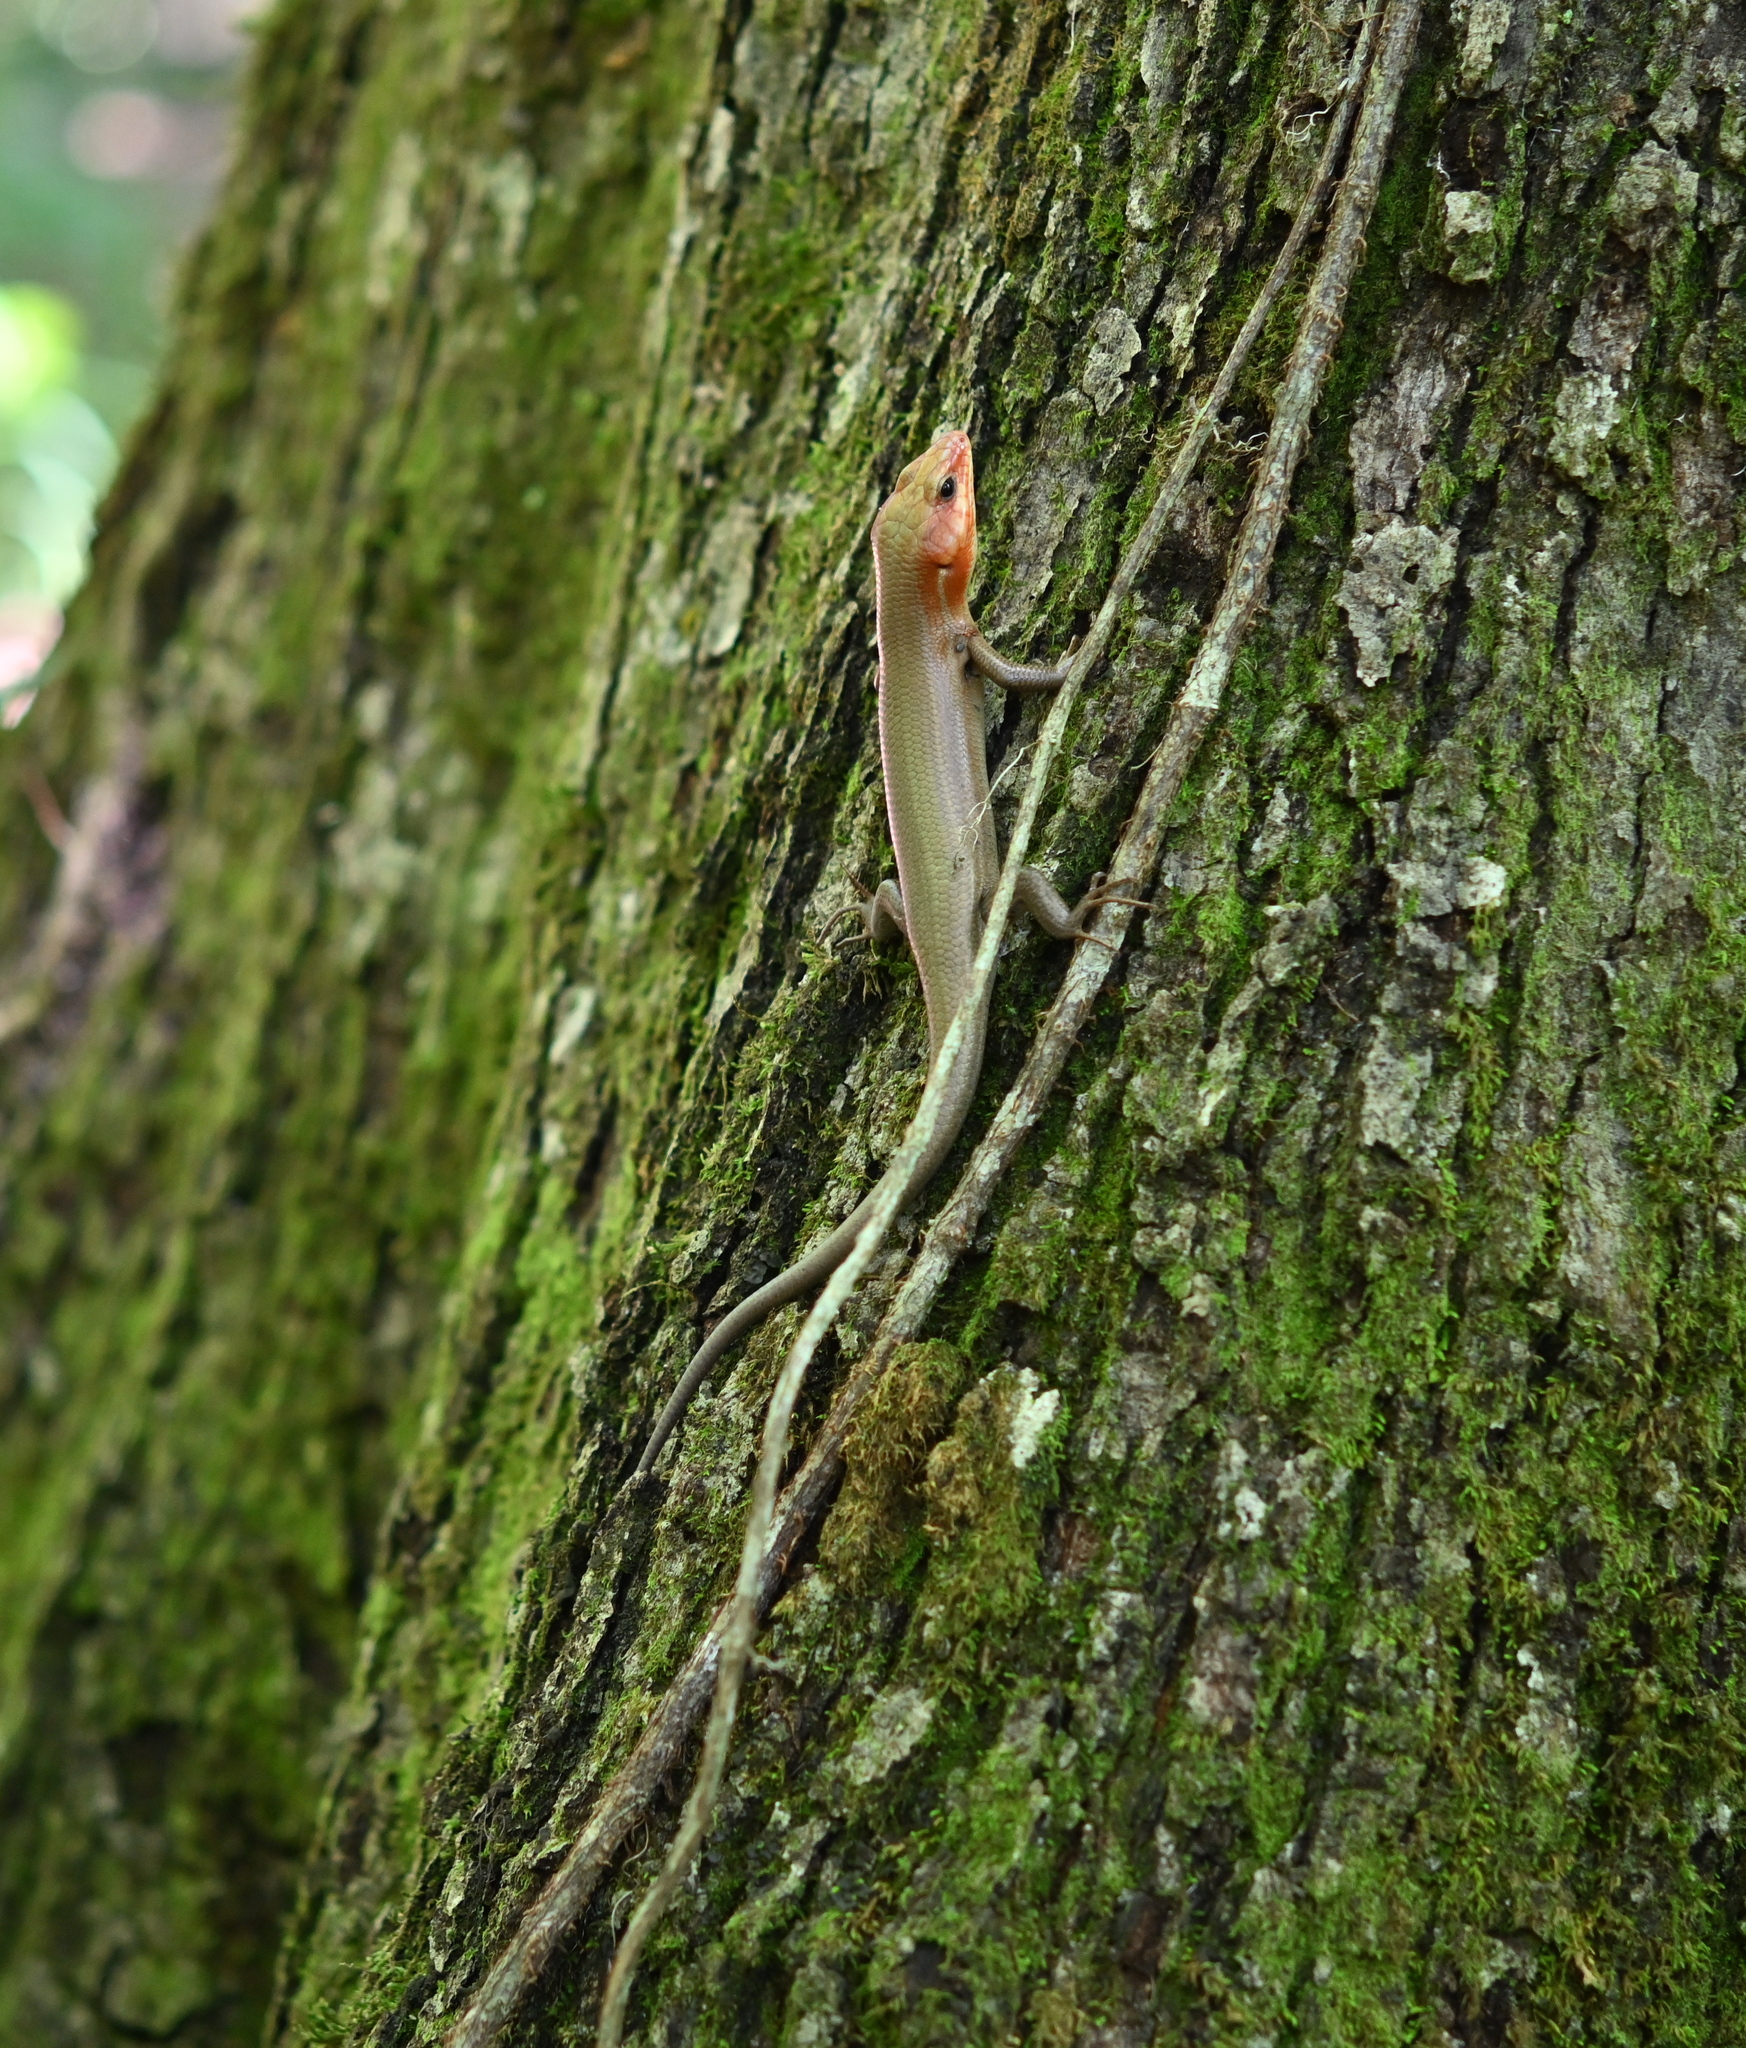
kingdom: Animalia
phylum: Chordata
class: Squamata
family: Scincidae
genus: Plestiodon
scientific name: Plestiodon laticeps
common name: Broadhead skink
